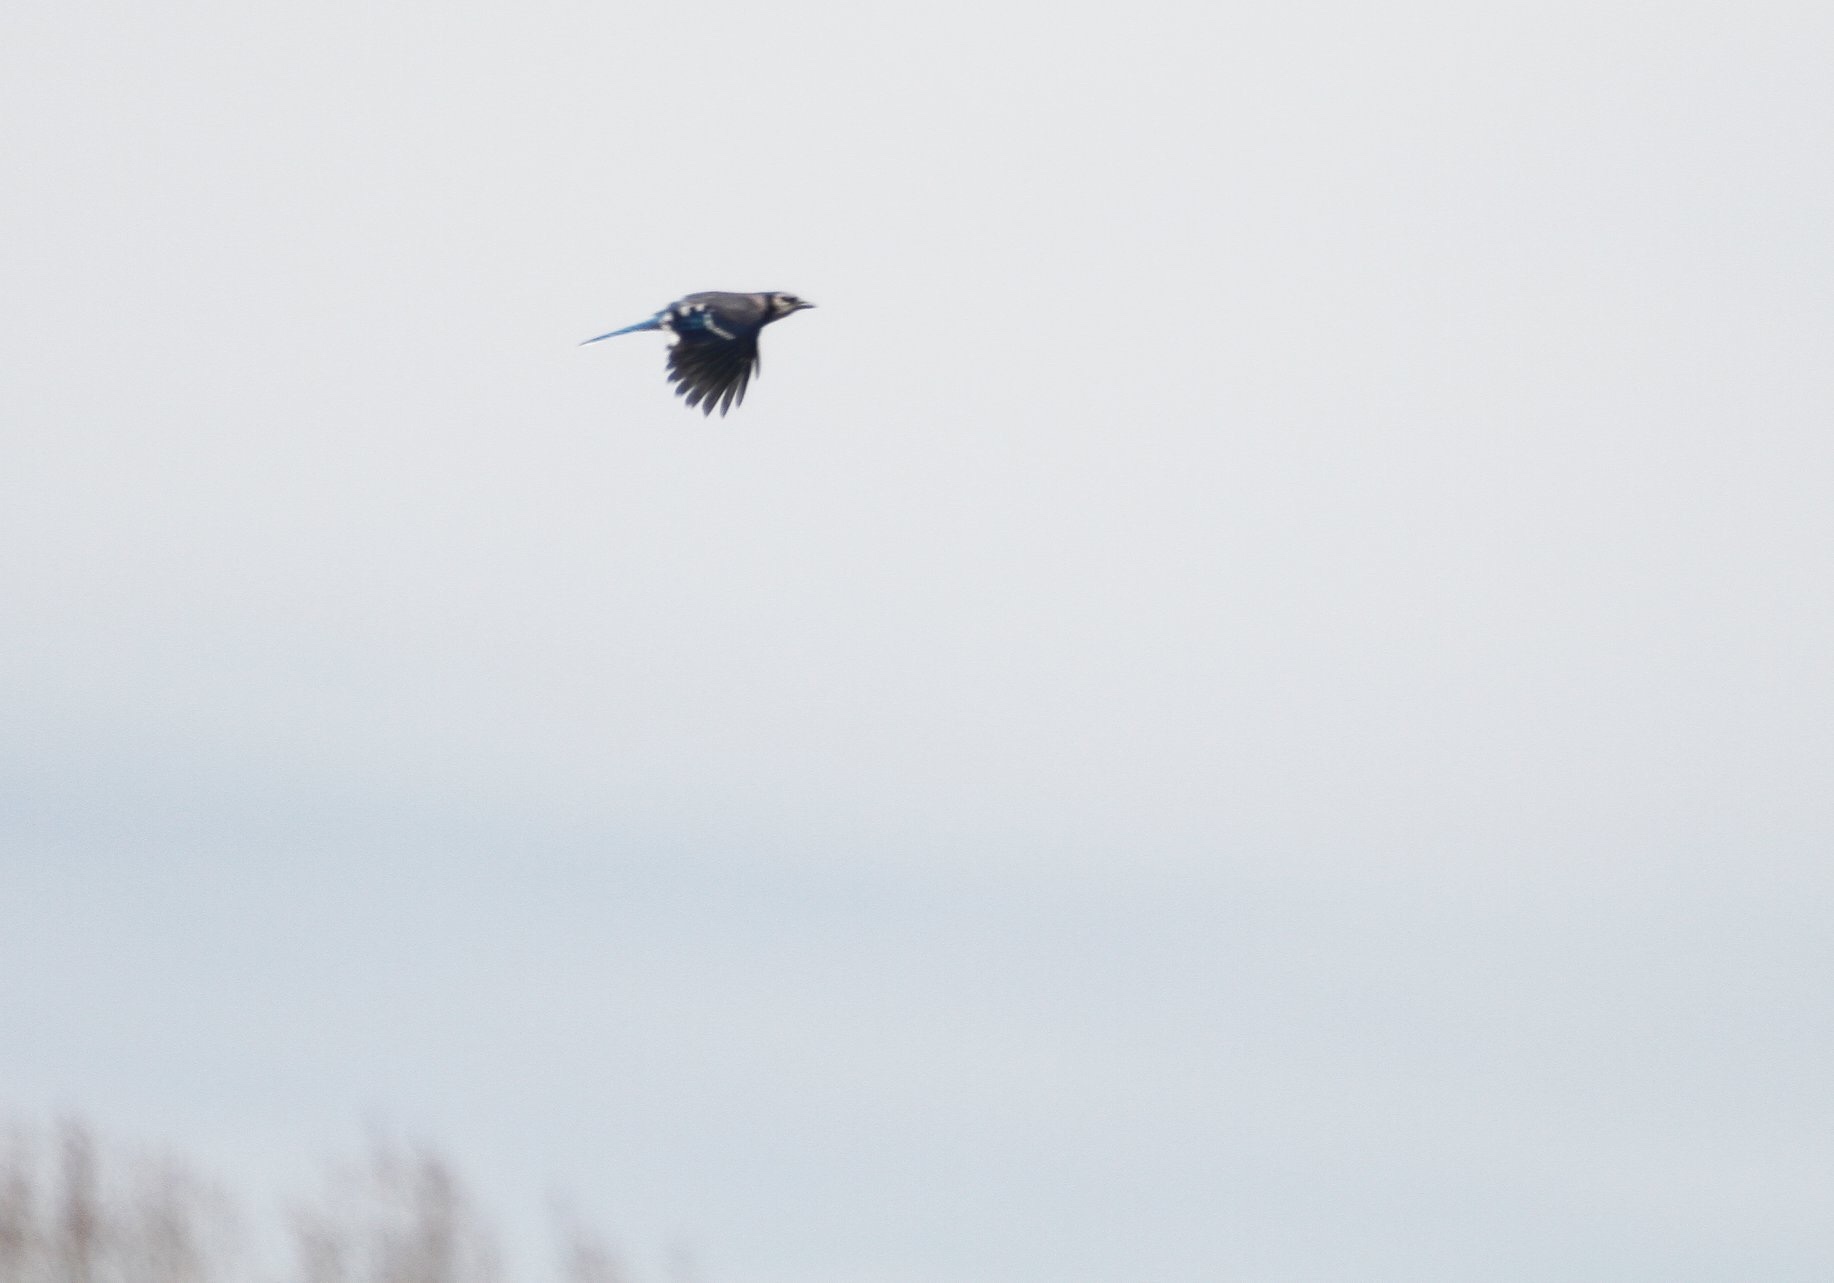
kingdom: Animalia
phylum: Chordata
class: Aves
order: Passeriformes
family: Corvidae
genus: Cyanocitta
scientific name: Cyanocitta cristata
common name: Blue jay
